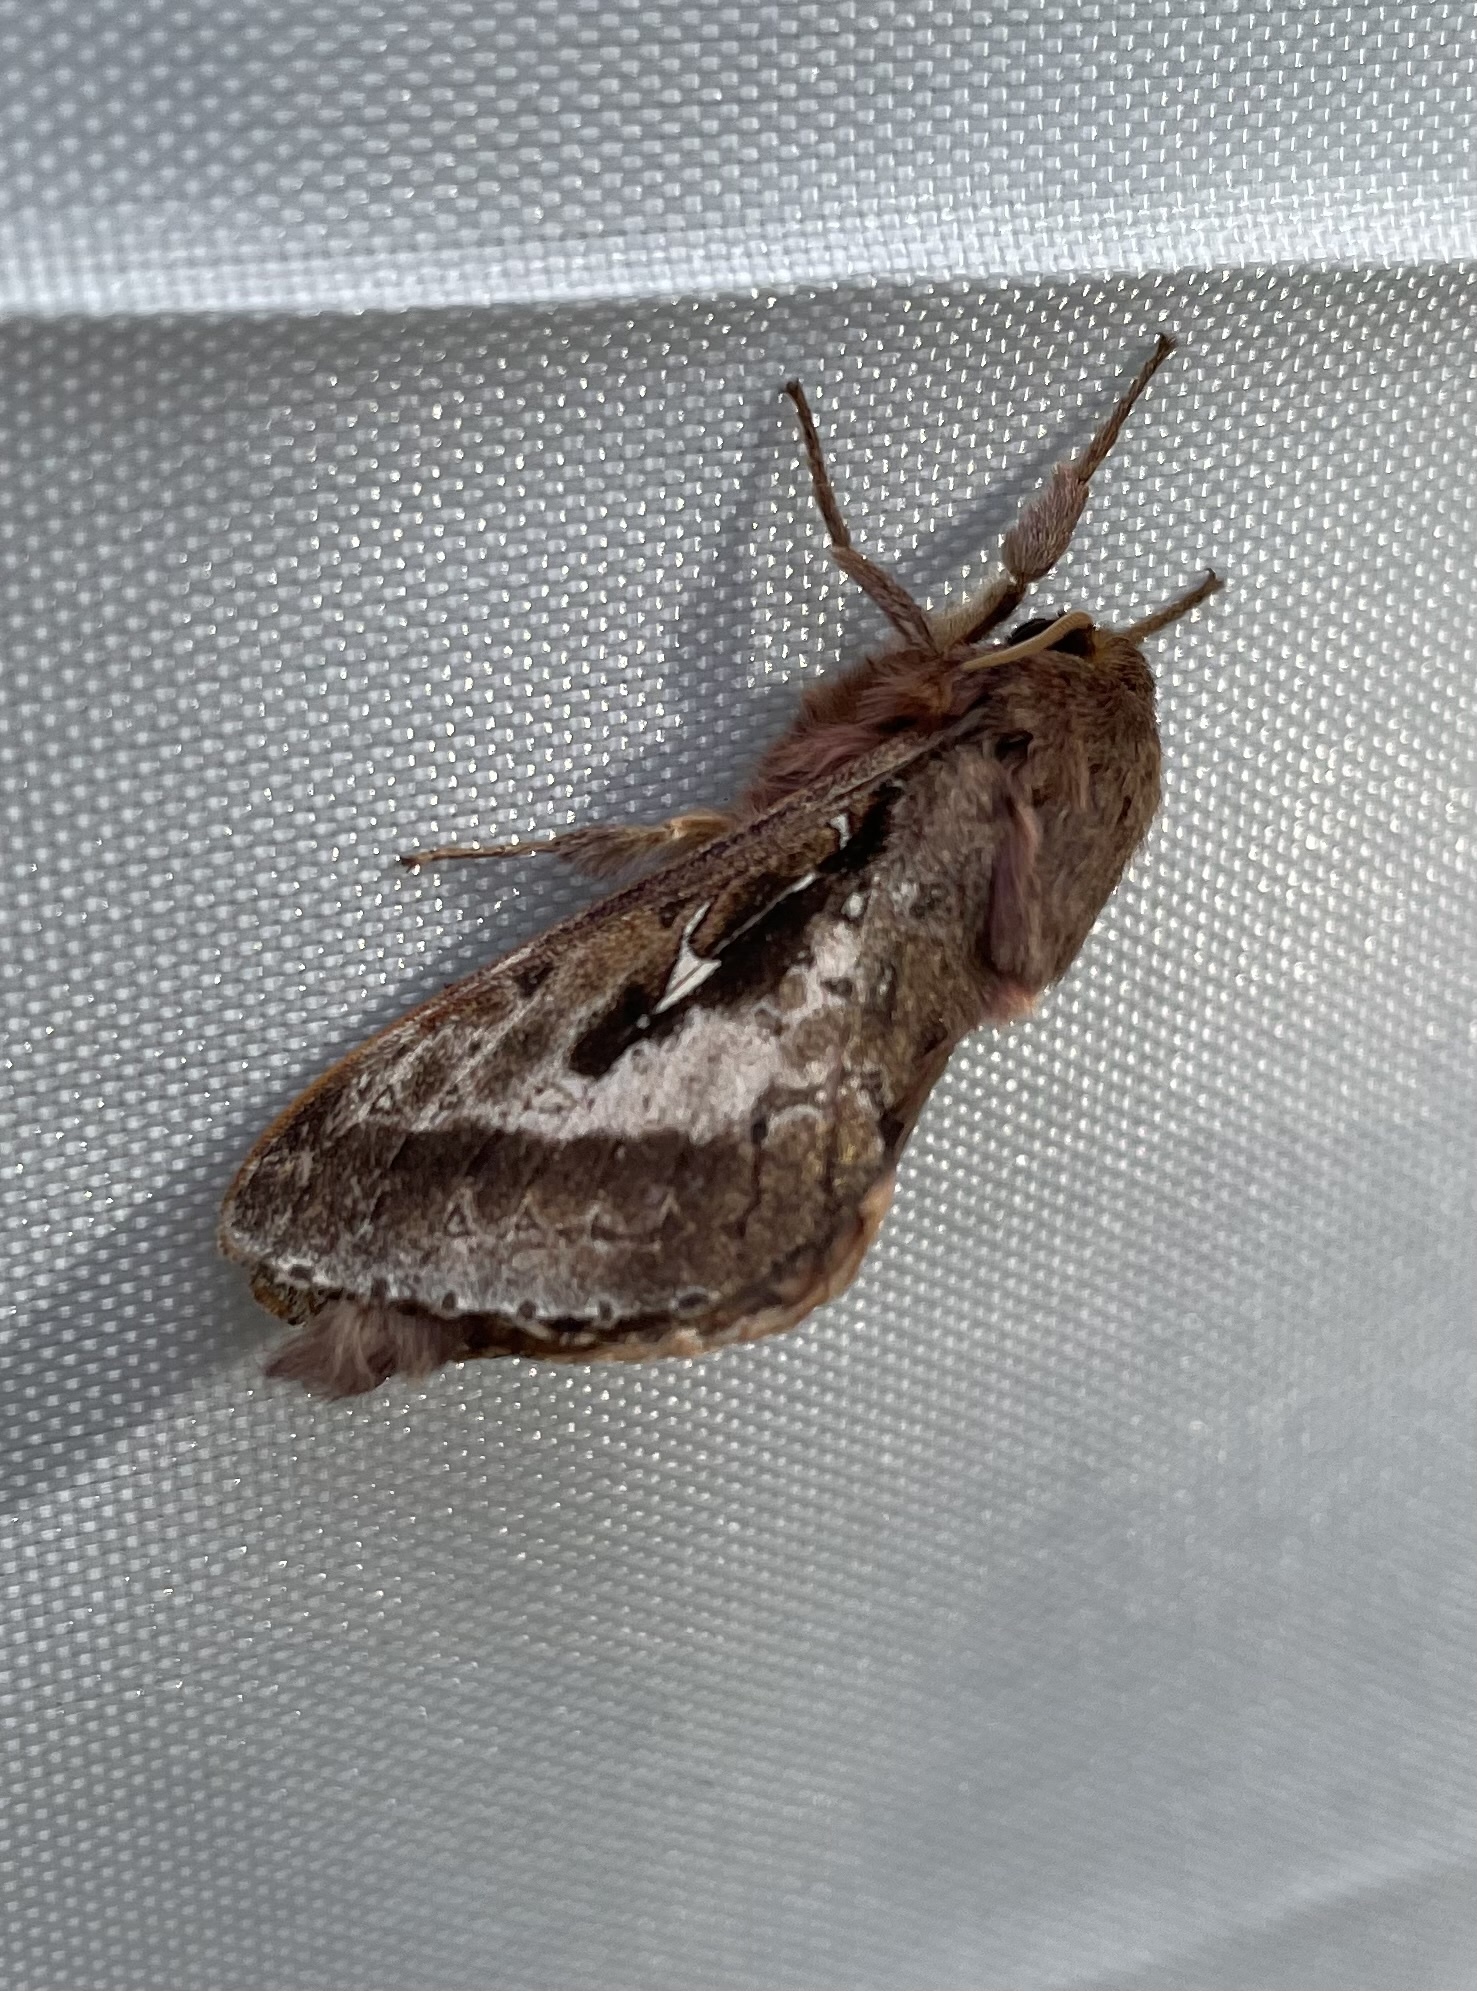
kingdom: Animalia
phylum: Arthropoda
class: Insecta
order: Lepidoptera
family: Hepialidae
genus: Wiseana
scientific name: Wiseana signata
